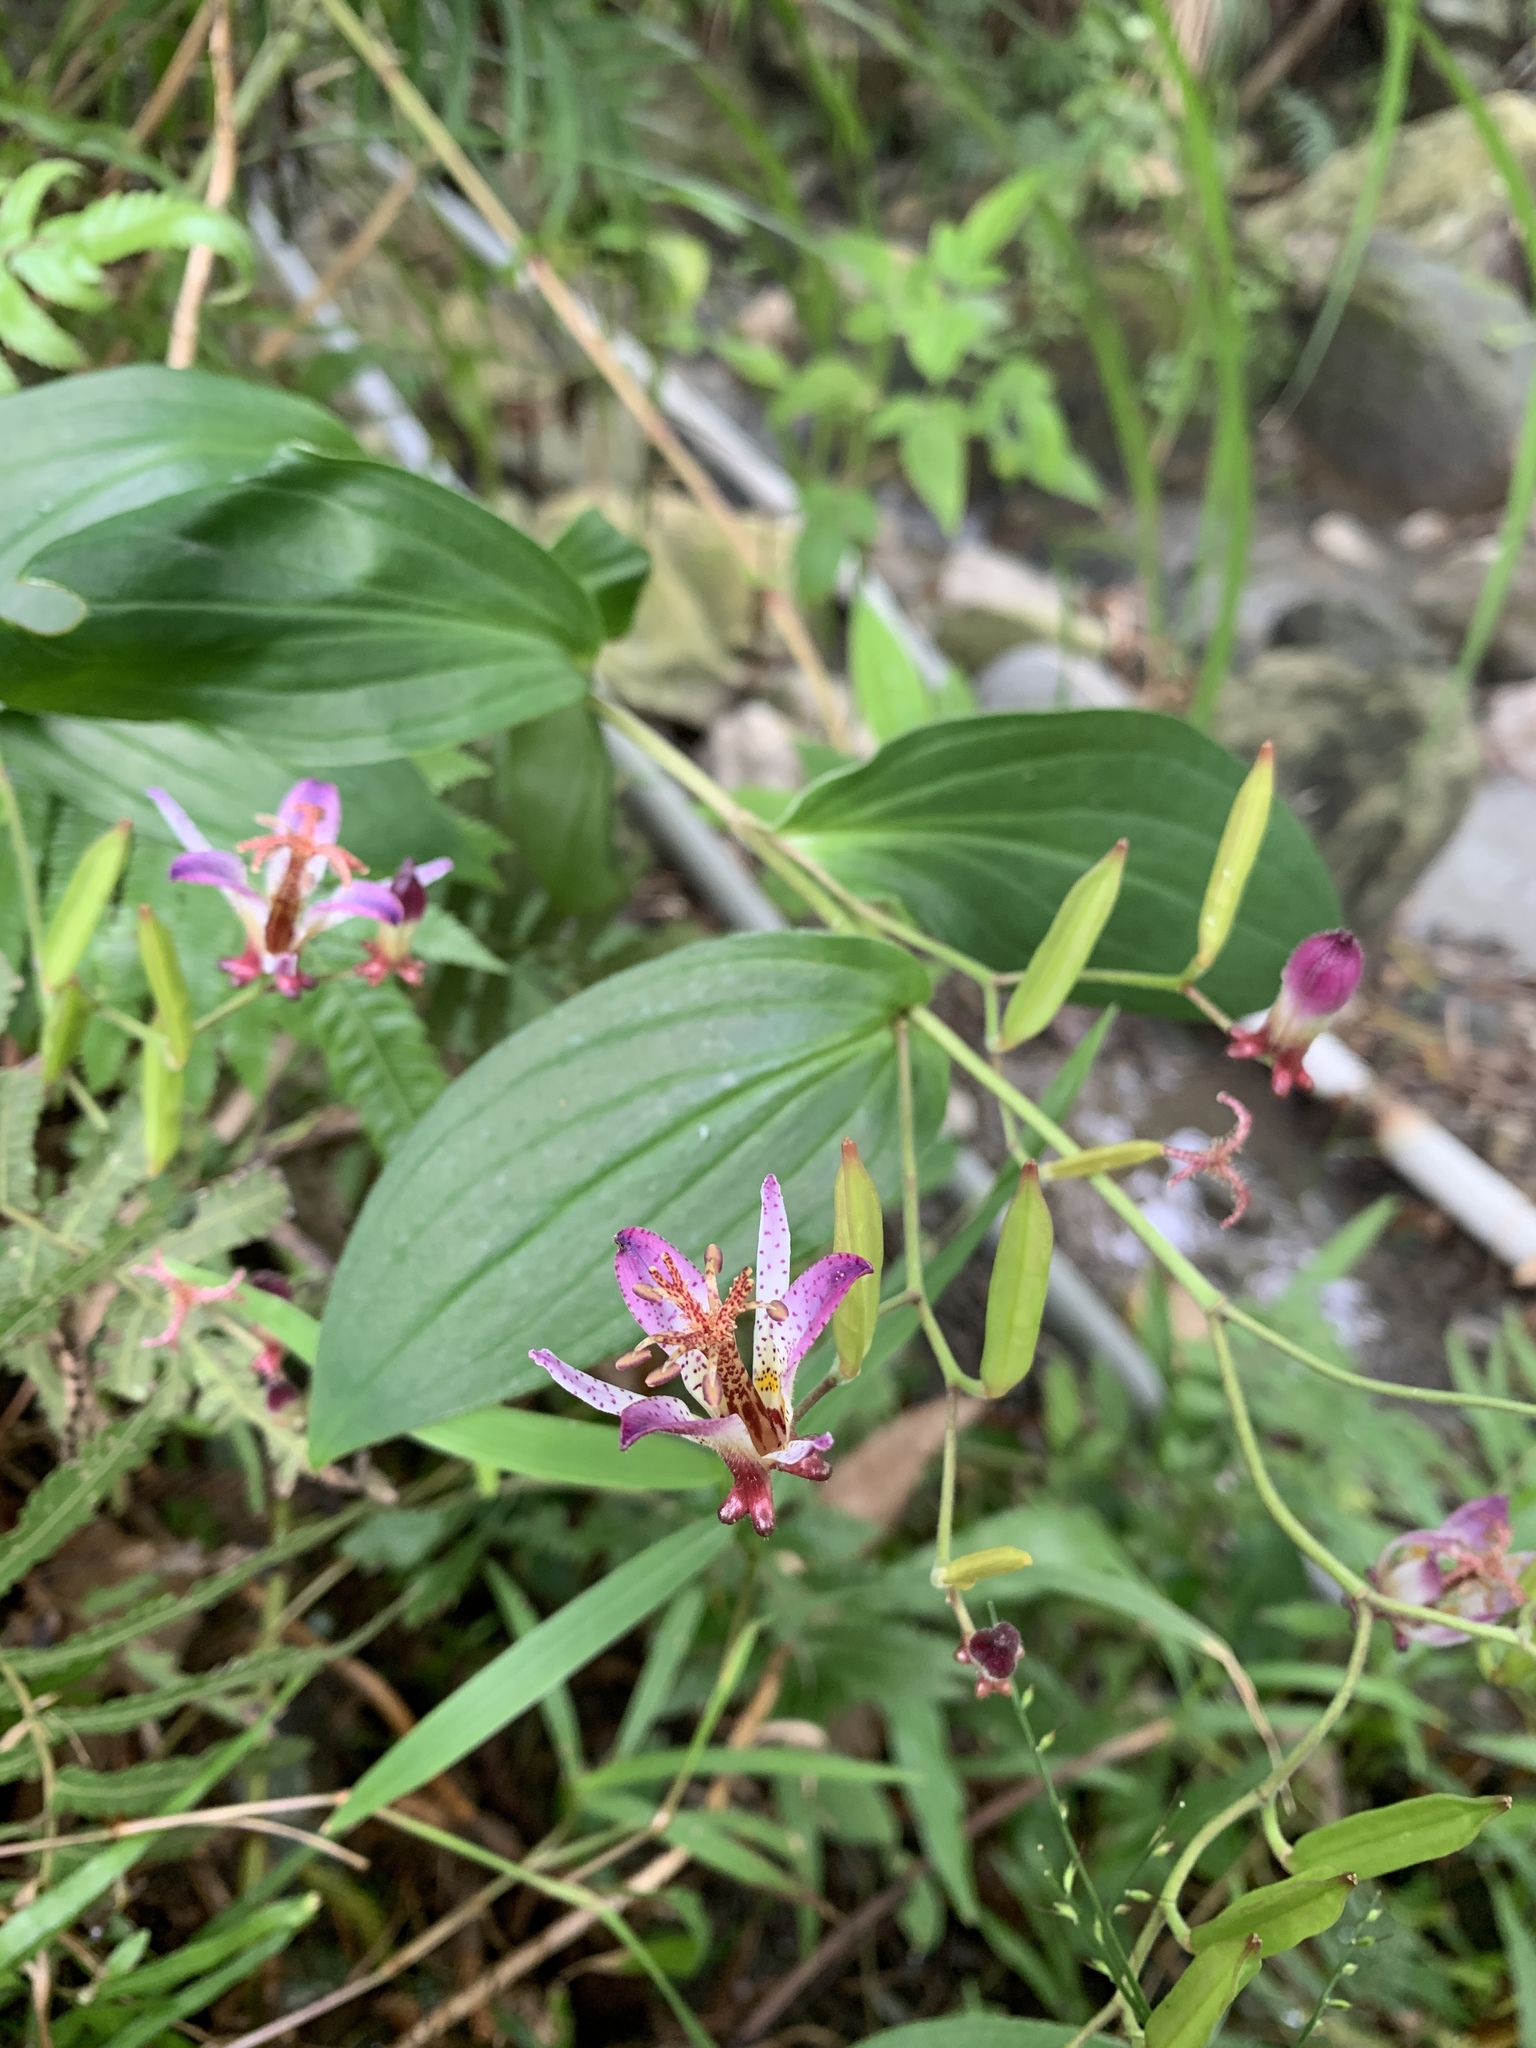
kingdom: Plantae
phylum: Tracheophyta
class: Liliopsida
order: Liliales
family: Liliaceae
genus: Tricyrtis
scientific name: Tricyrtis formosana
